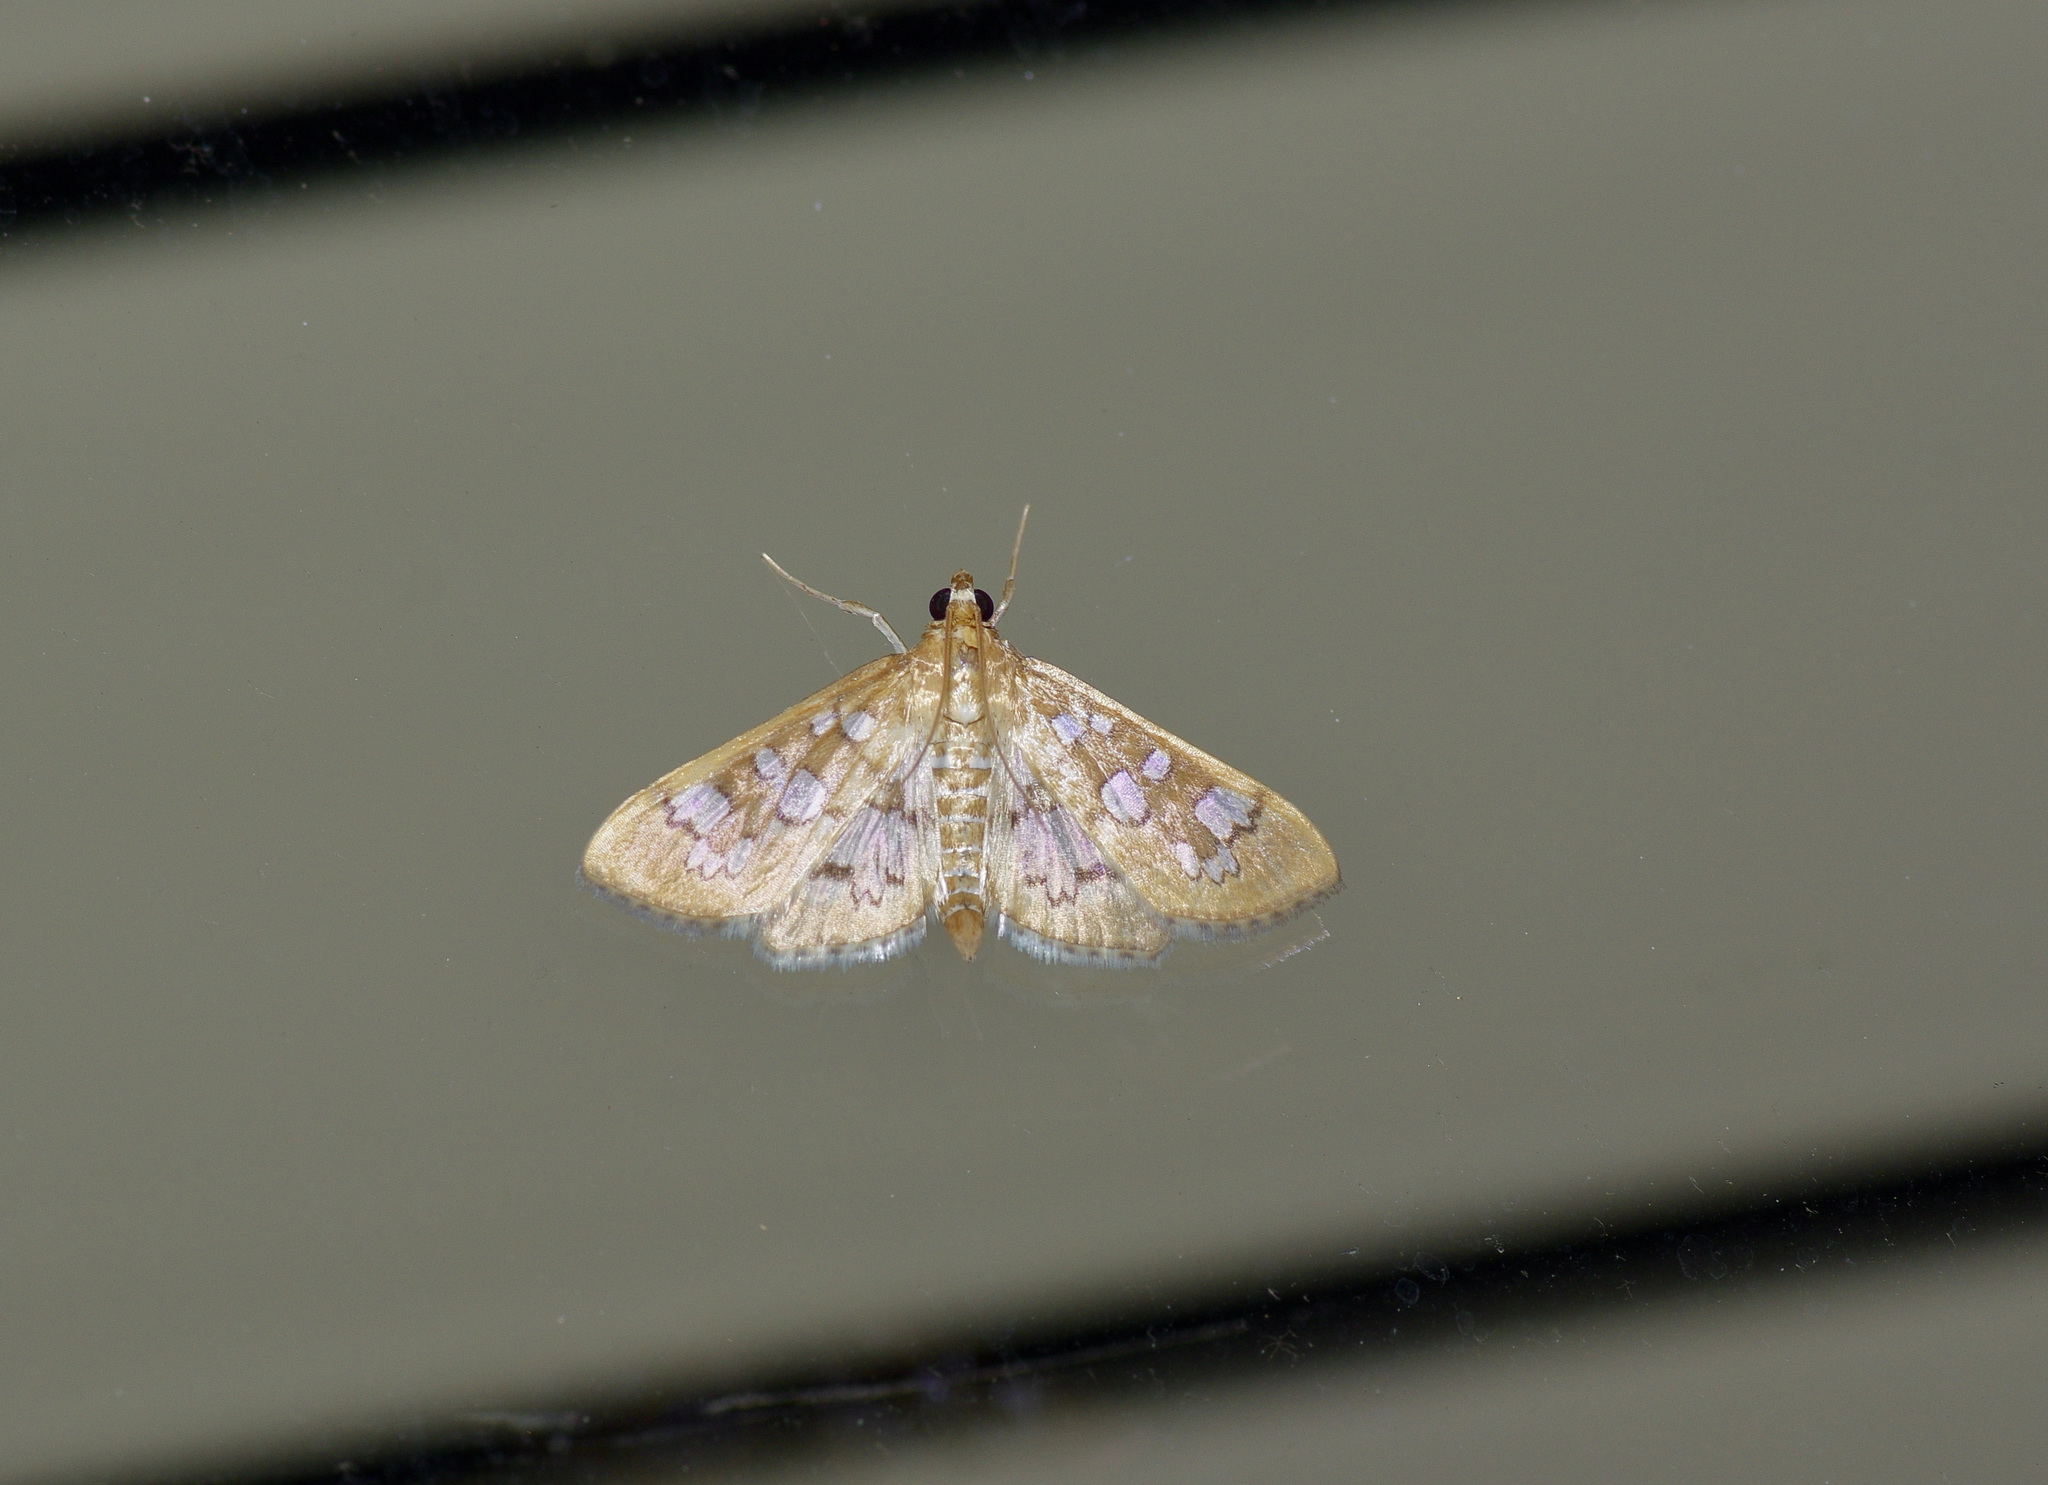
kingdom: Animalia
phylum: Arthropoda
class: Insecta
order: Lepidoptera
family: Crambidae
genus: Samea
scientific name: Samea baccatalis
